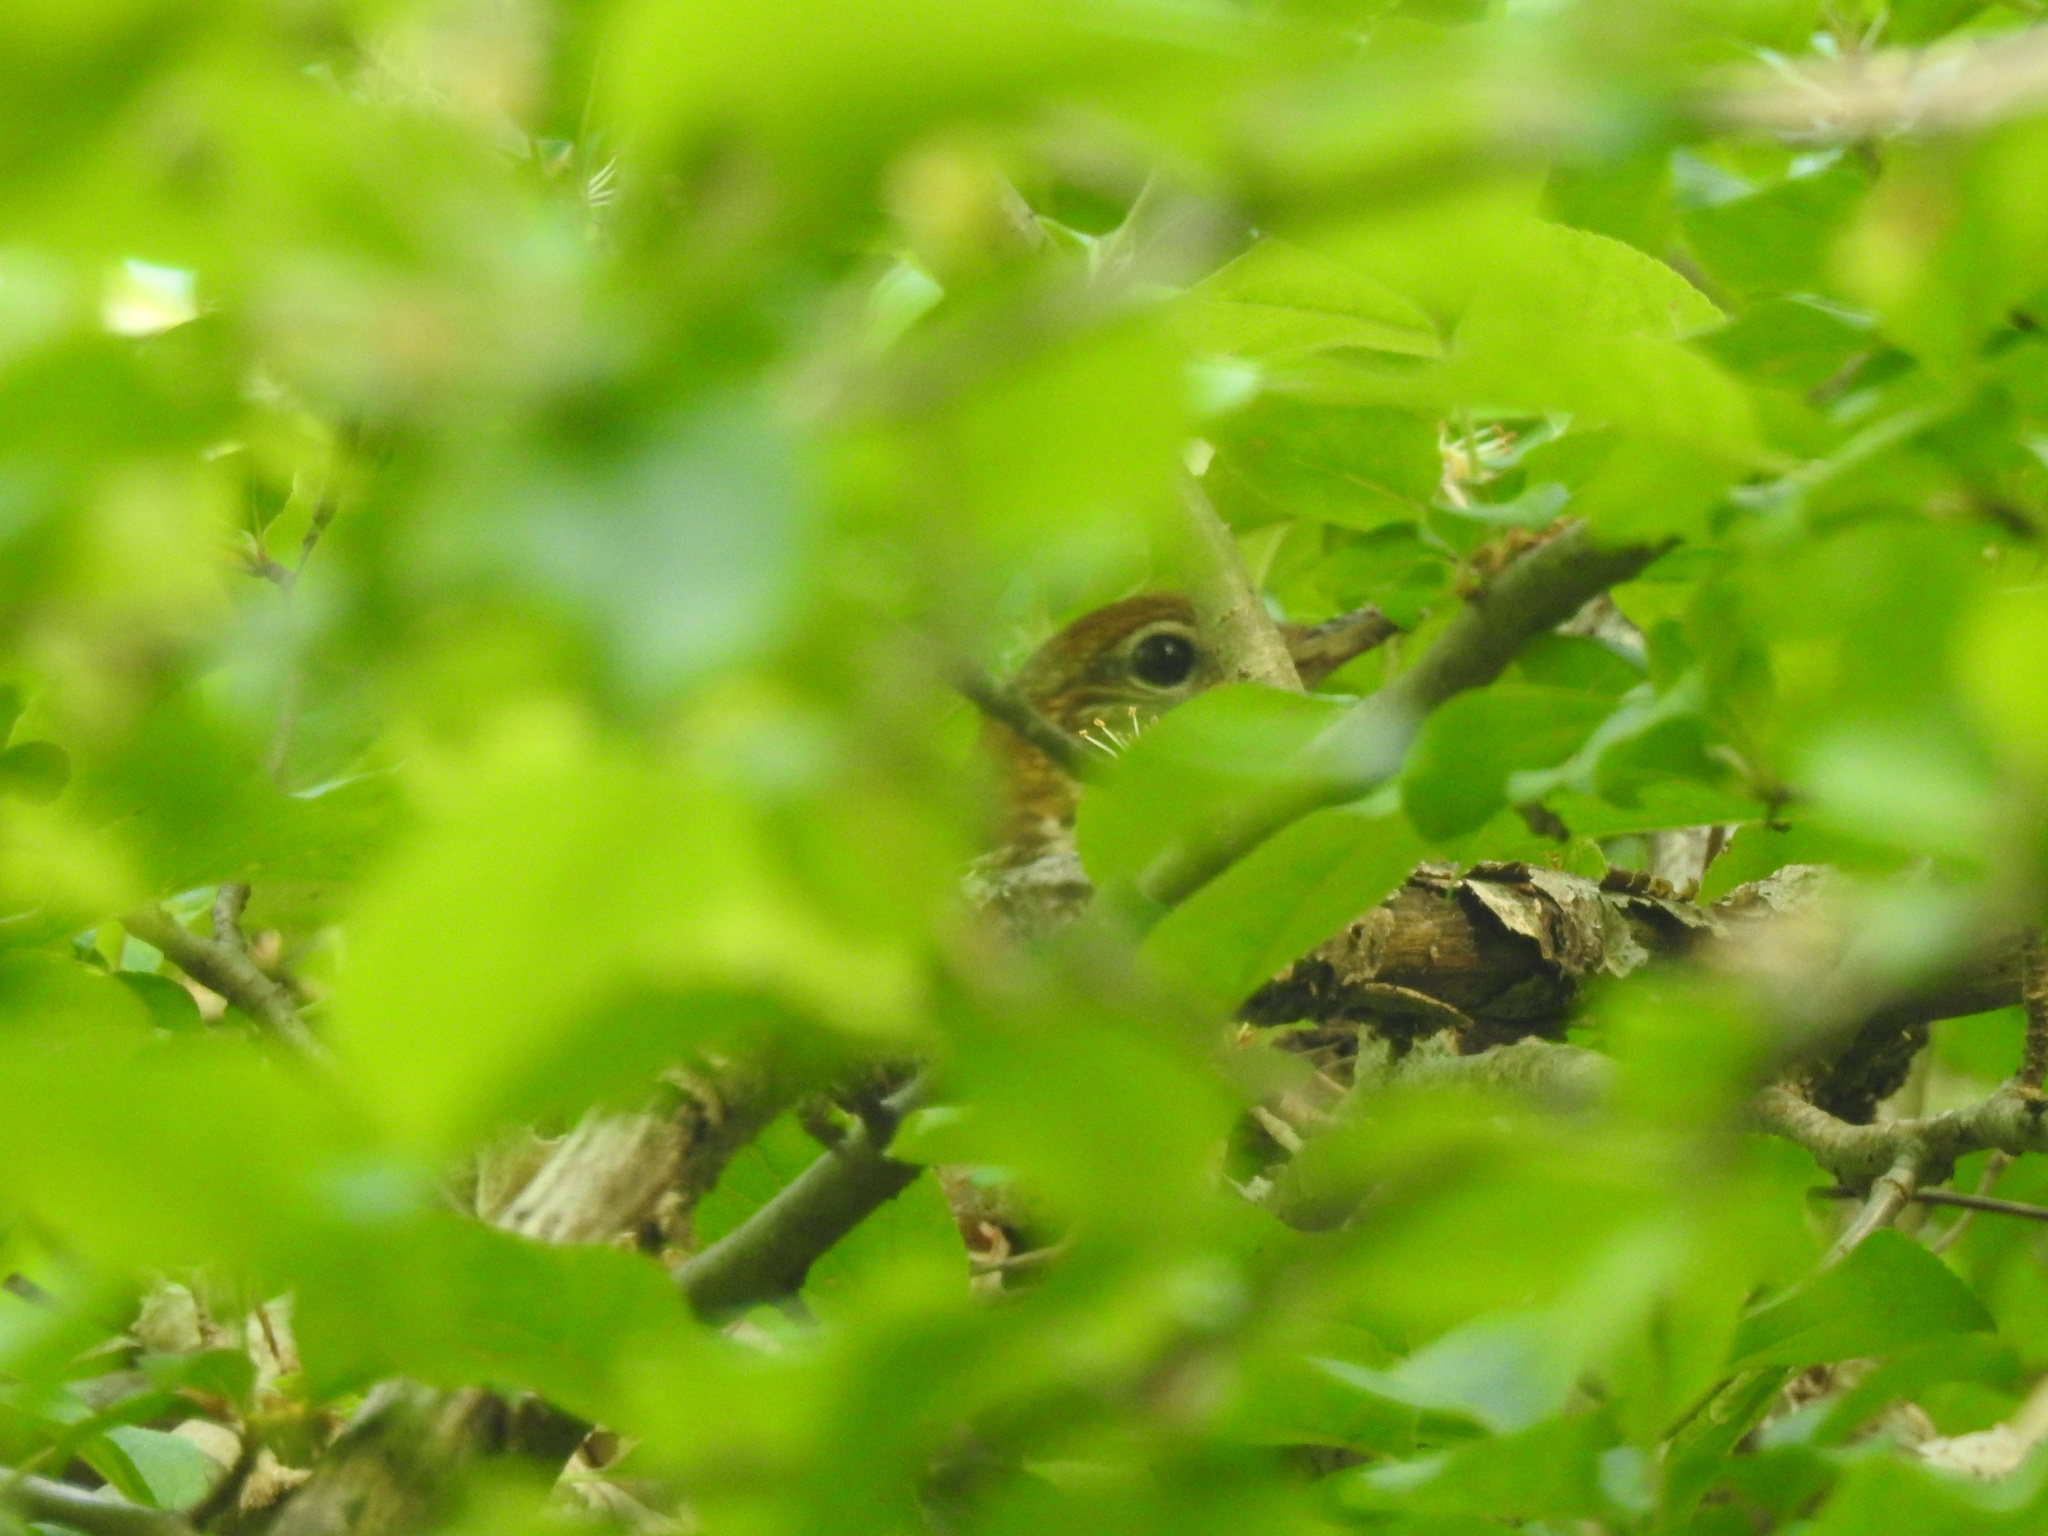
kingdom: Animalia
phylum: Chordata
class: Aves
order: Passeriformes
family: Turdidae
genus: Hylocichla
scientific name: Hylocichla mustelina
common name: Wood thrush
